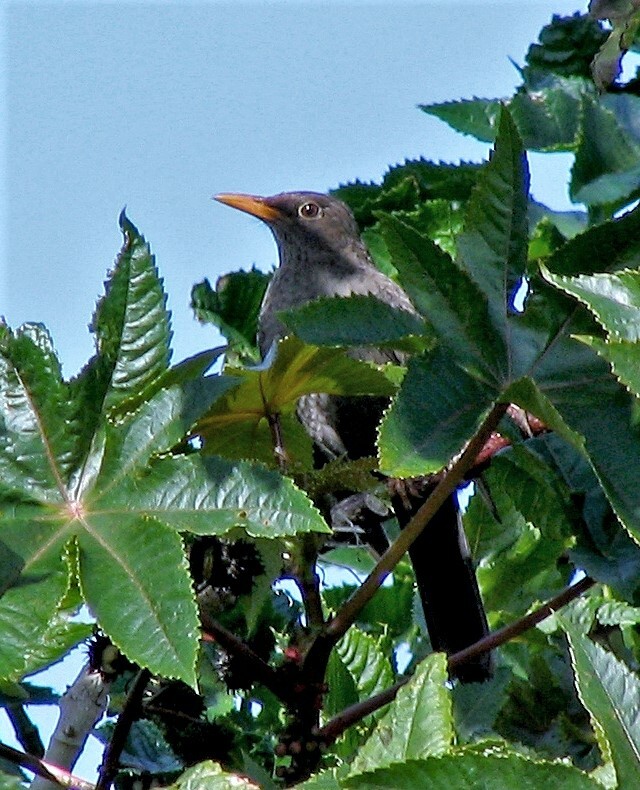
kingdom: Animalia
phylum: Chordata
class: Aves
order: Passeriformes
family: Turdidae
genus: Turdus
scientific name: Turdus chiguanco
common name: Chiguanco thrush
